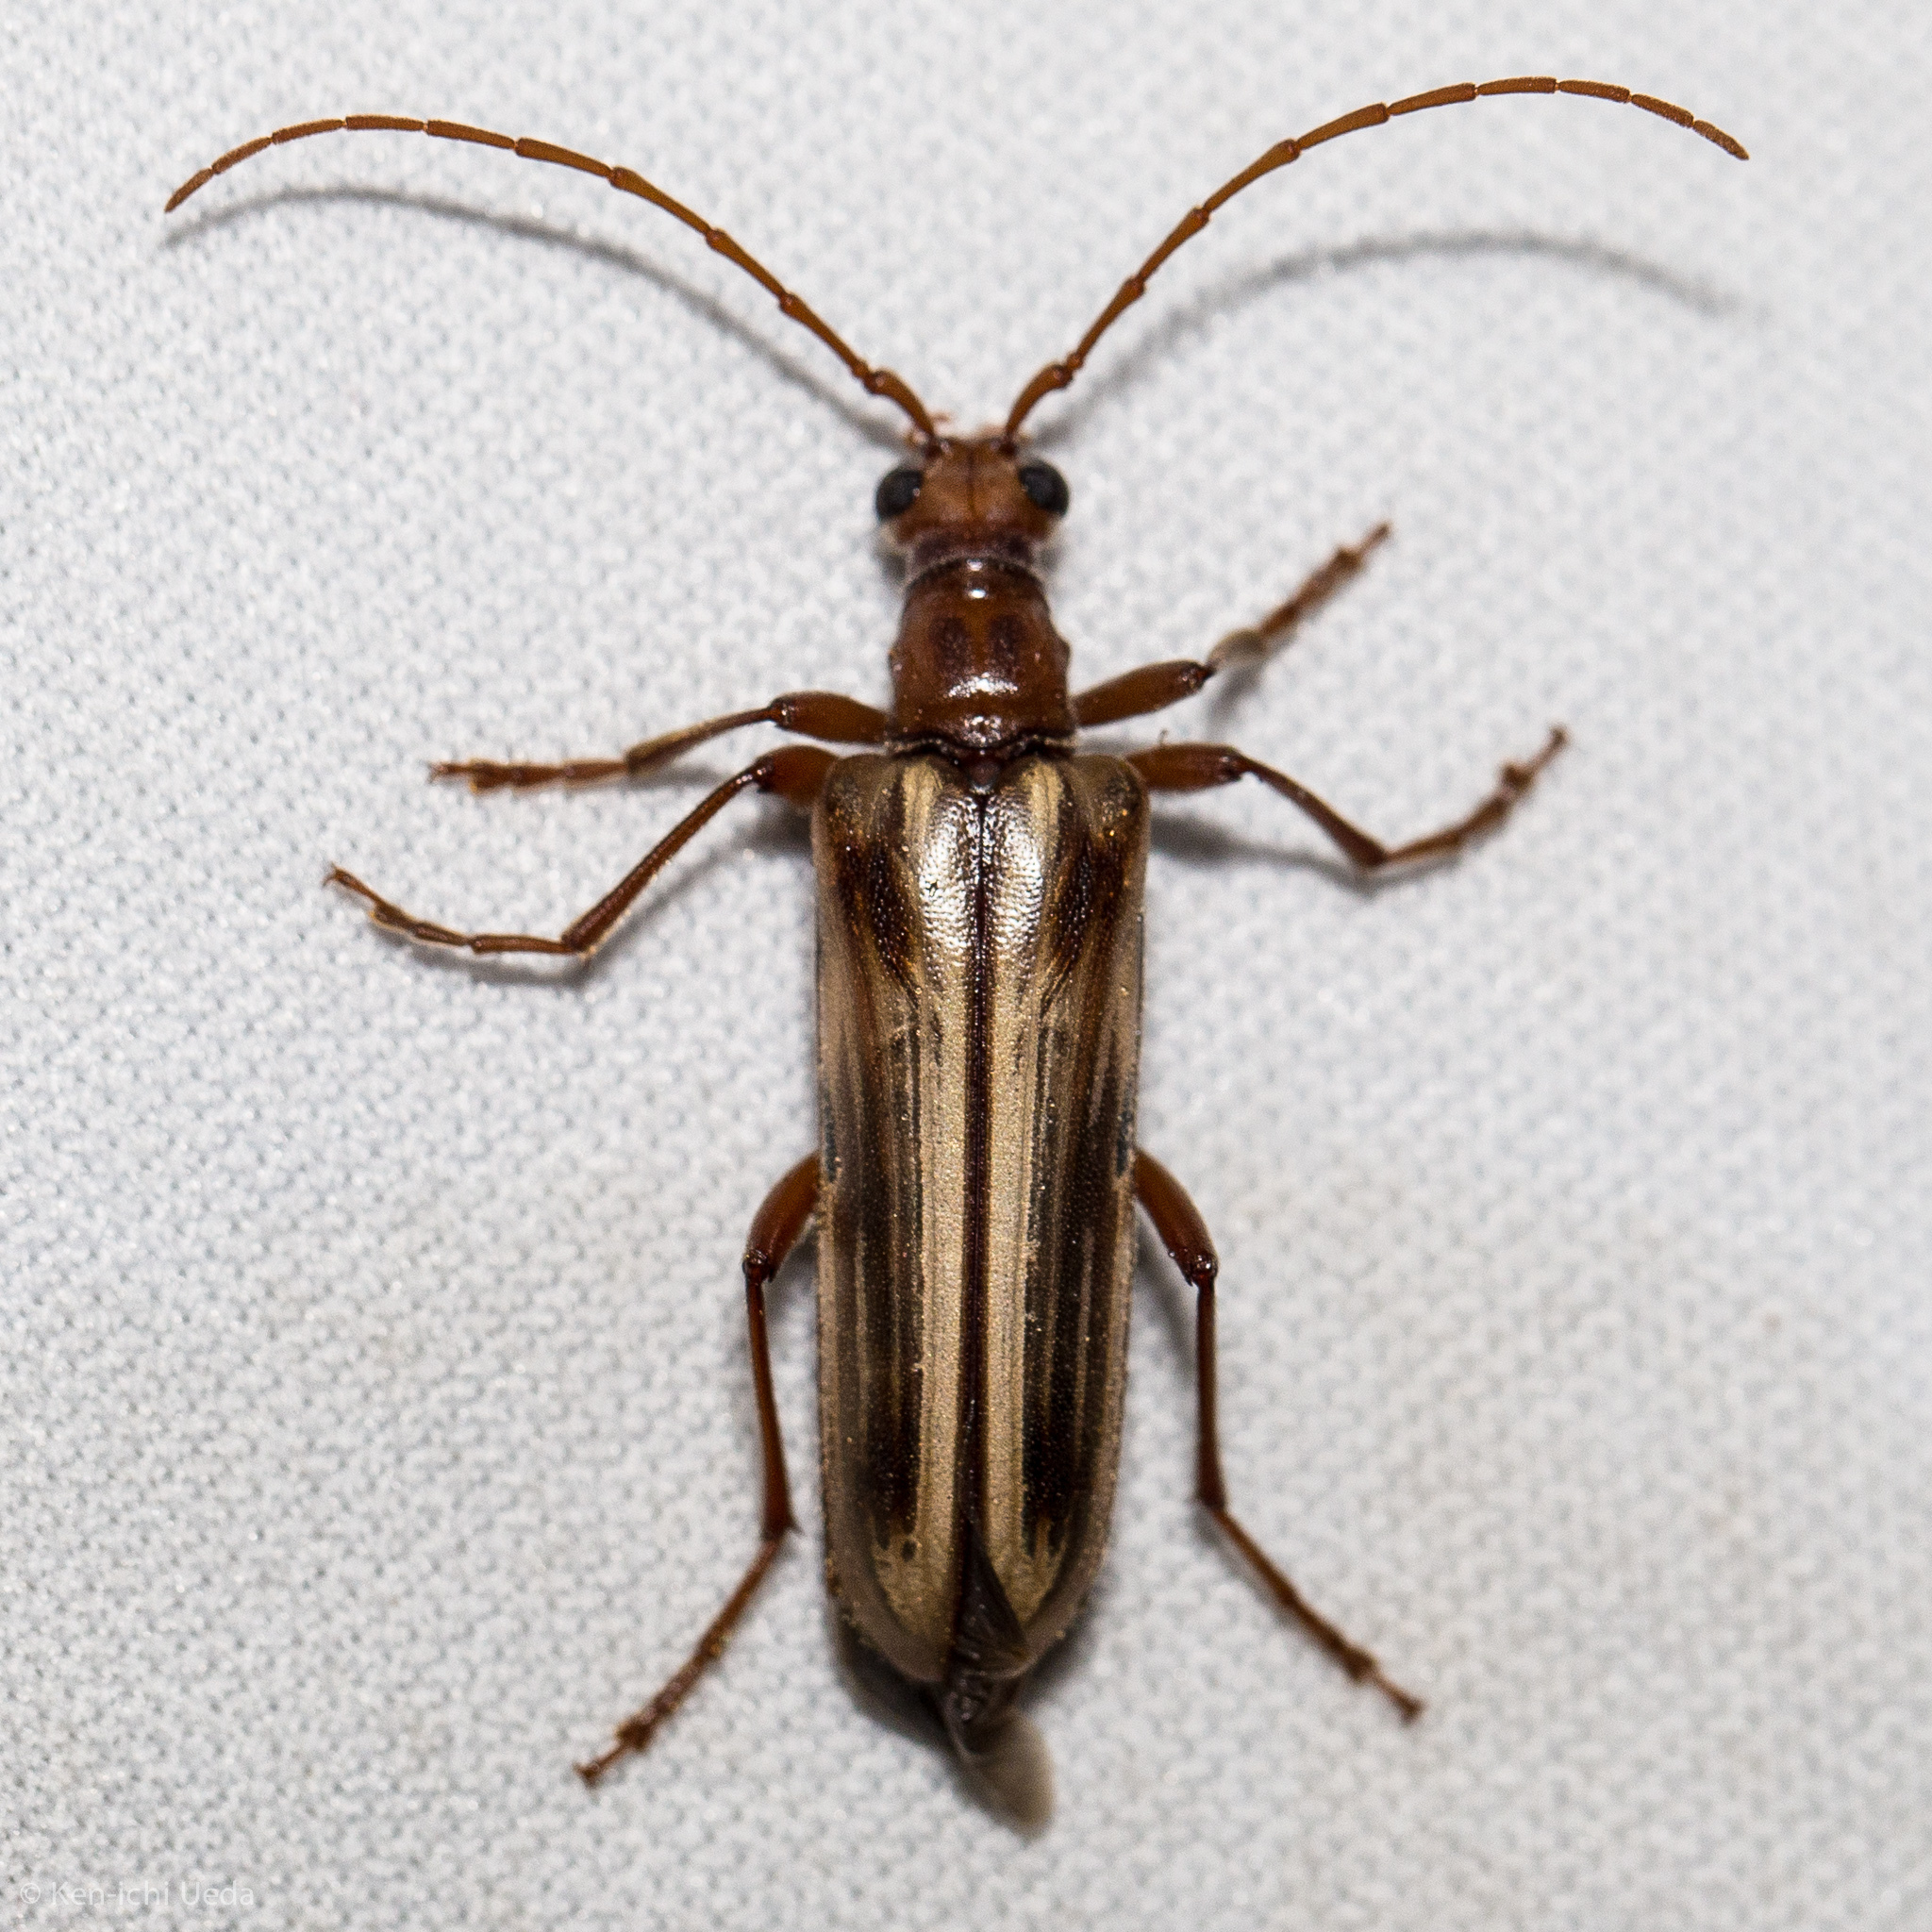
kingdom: Animalia
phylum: Arthropoda
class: Insecta
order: Coleoptera
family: Cerambycidae
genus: Ortholeptura
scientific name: Ortholeptura insignis
